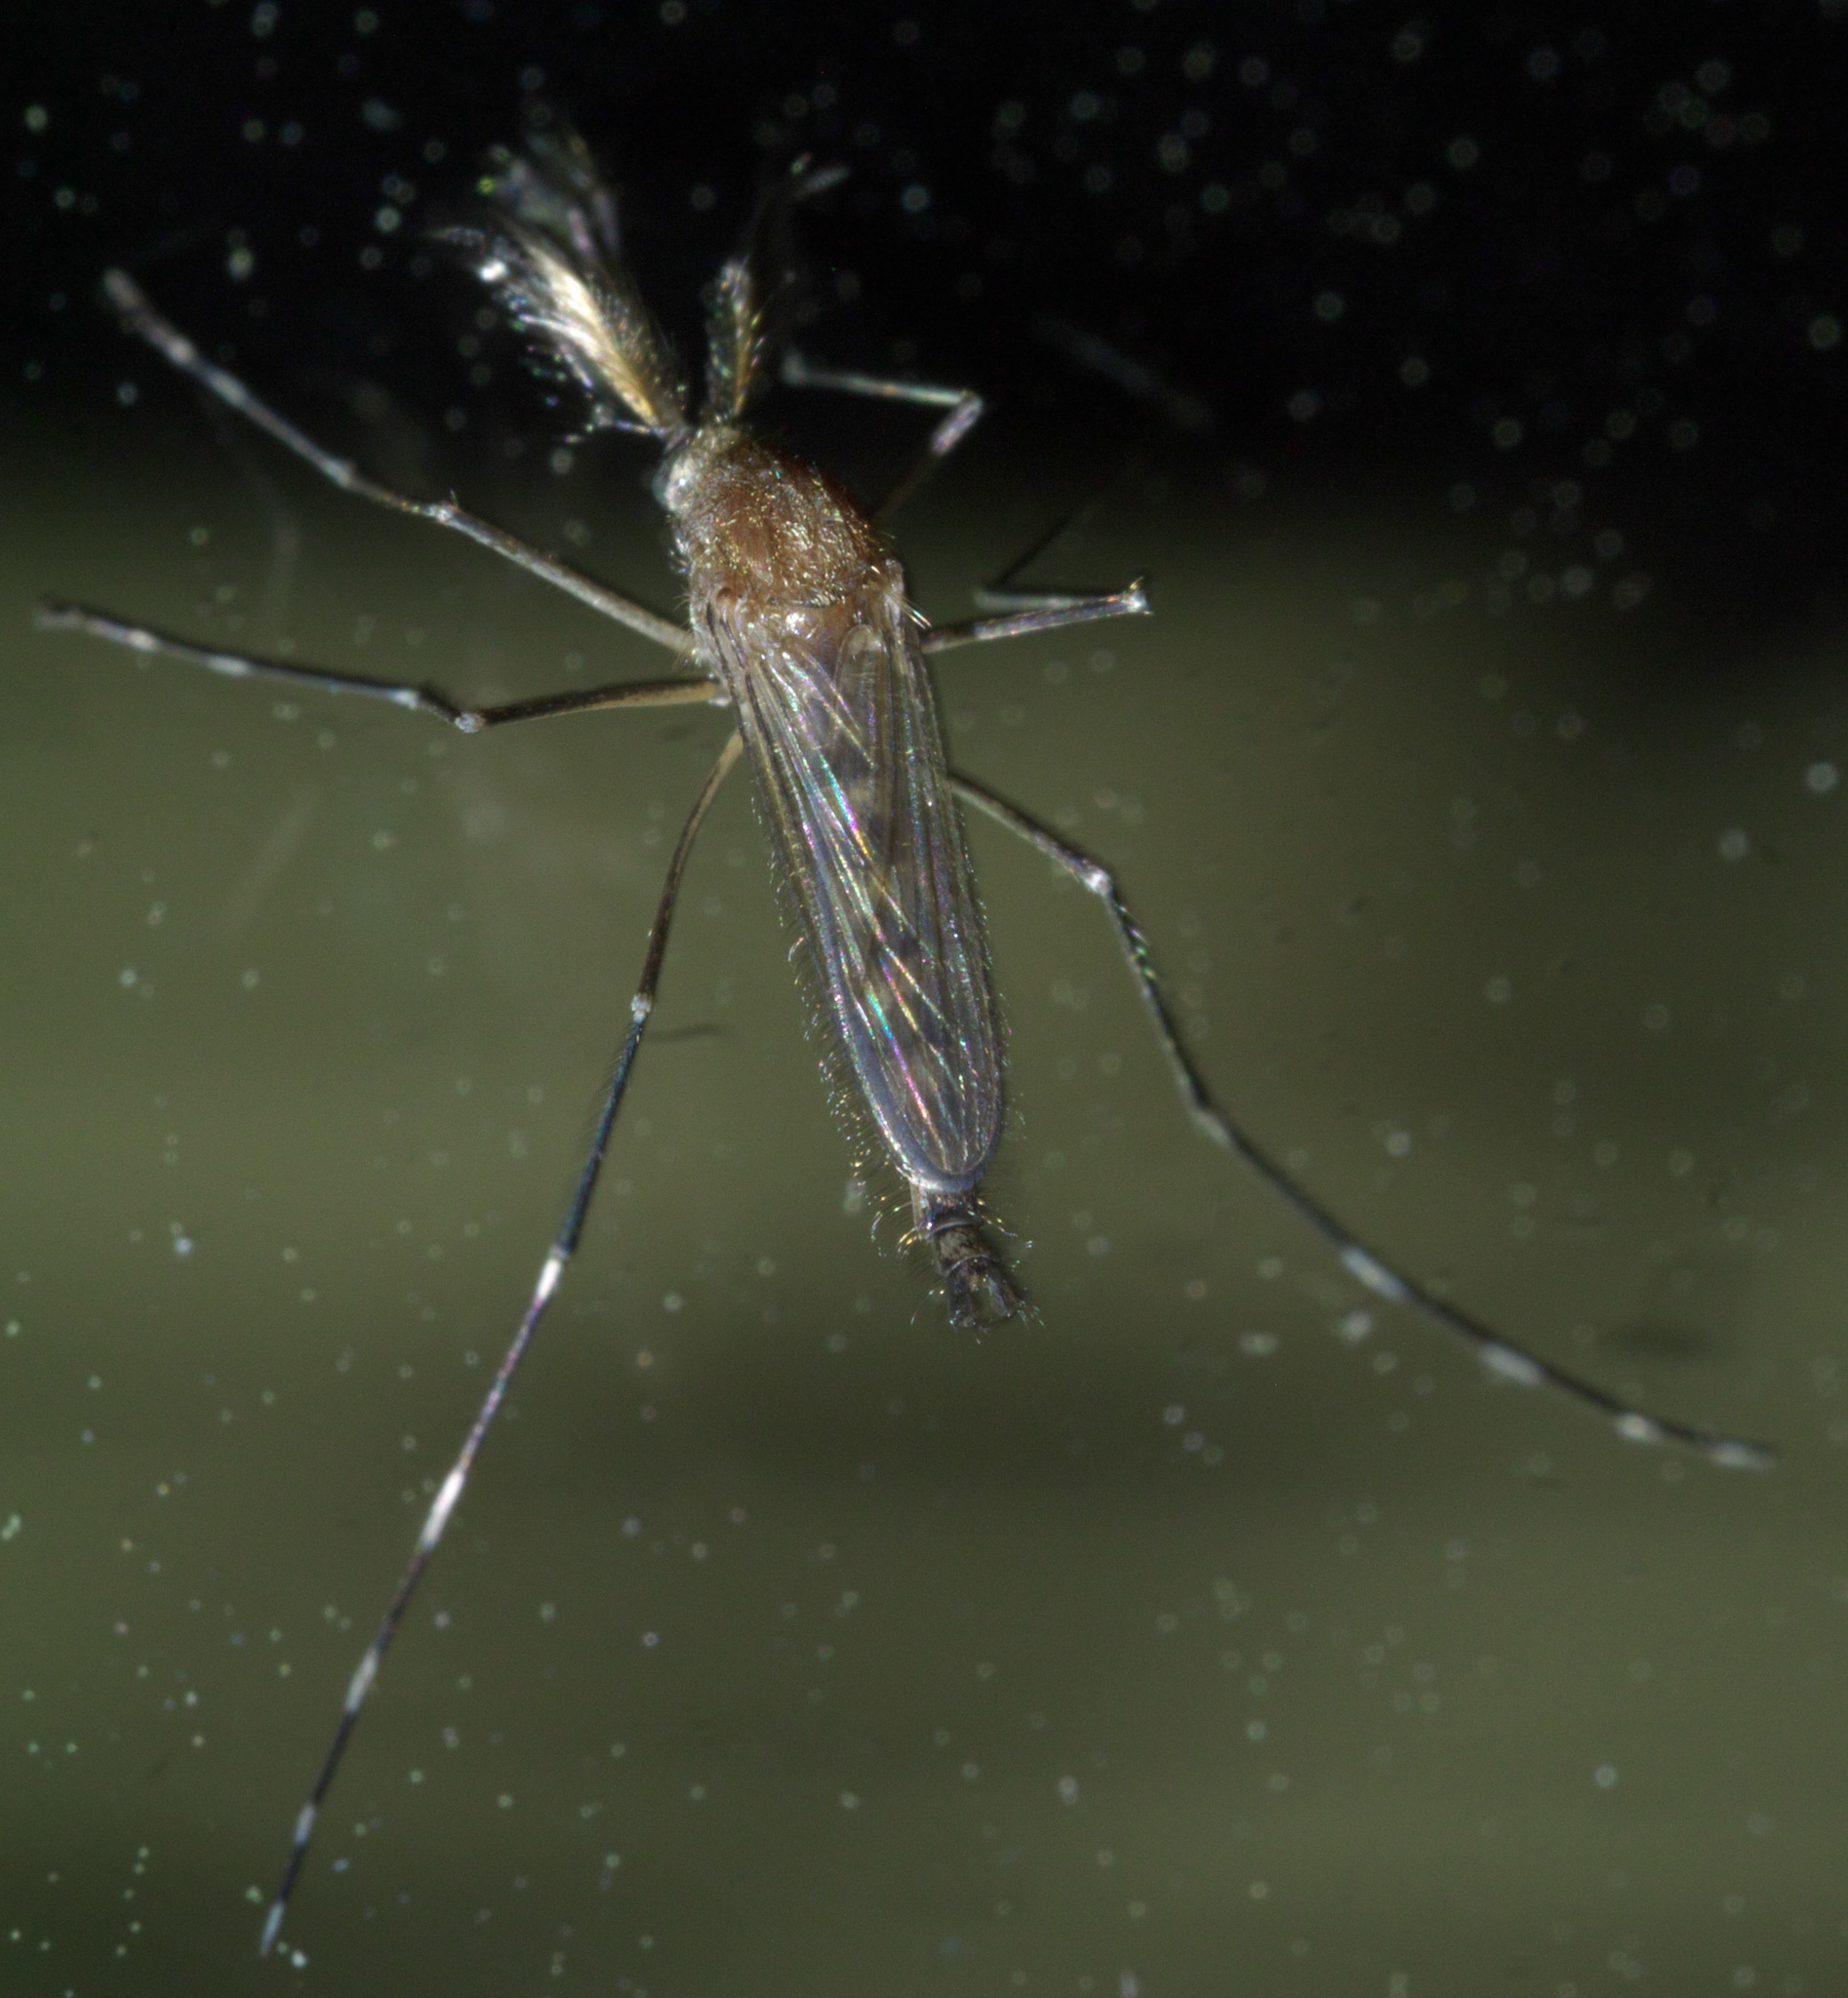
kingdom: Animalia
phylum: Arthropoda
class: Insecta
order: Diptera
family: Culicidae
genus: Aedes
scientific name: Aedes canadensis
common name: Woodland pool mosquito
